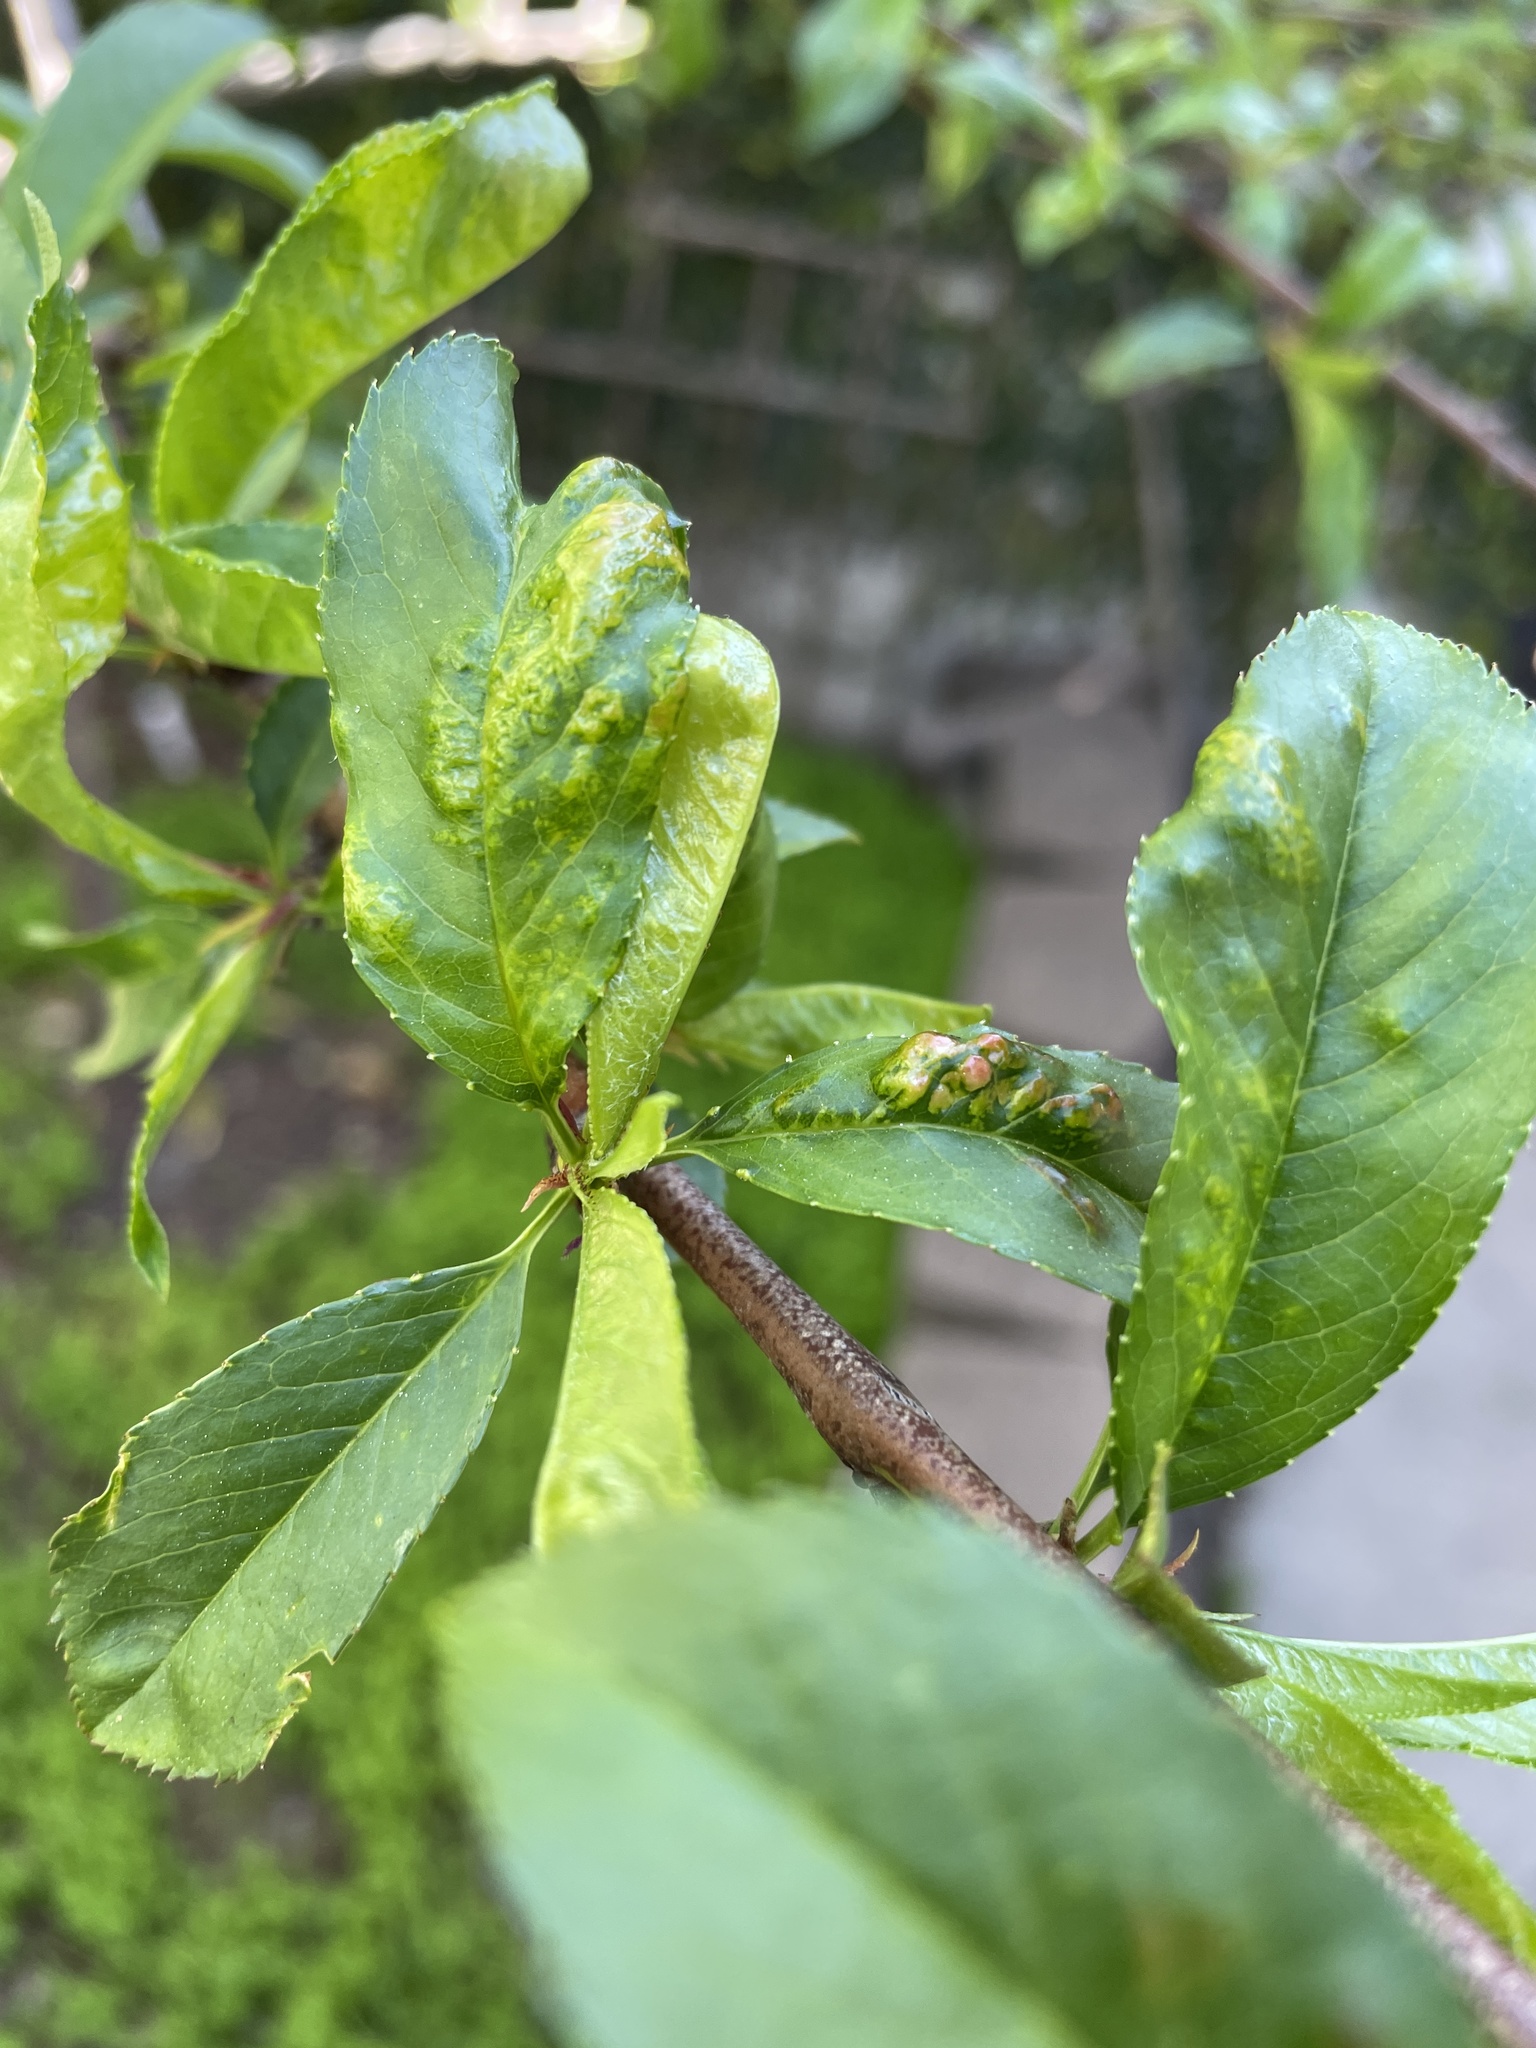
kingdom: Fungi
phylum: Ascomycota
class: Taphrinomycetes
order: Taphrinales
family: Taphrinaceae
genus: Taphrina
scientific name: Taphrina deformans
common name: Peach leaf curl
